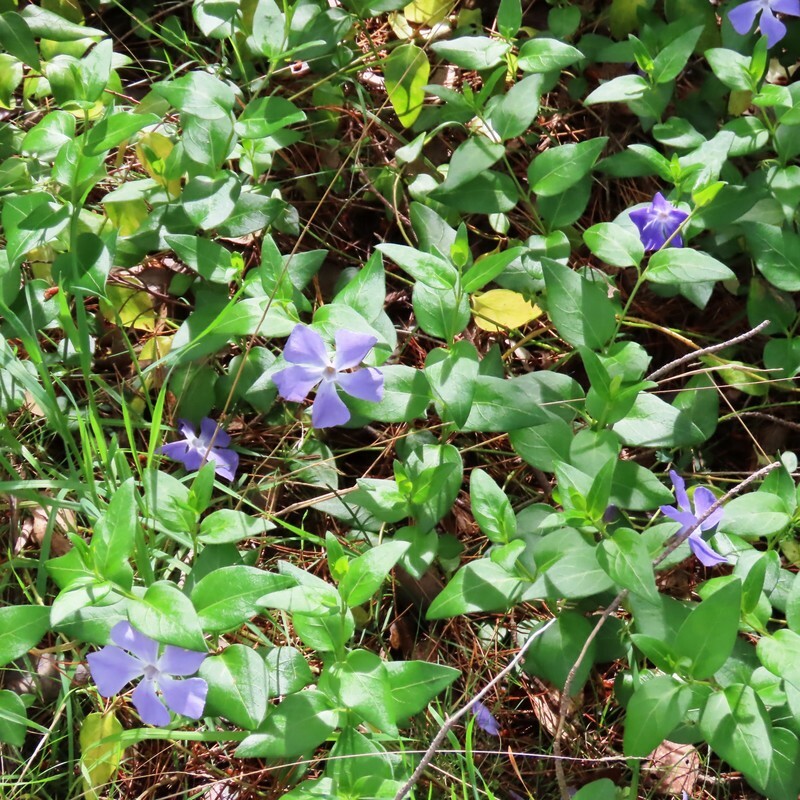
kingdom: Plantae
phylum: Tracheophyta
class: Magnoliopsida
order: Gentianales
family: Apocynaceae
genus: Vinca
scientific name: Vinca major
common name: Greater periwinkle
